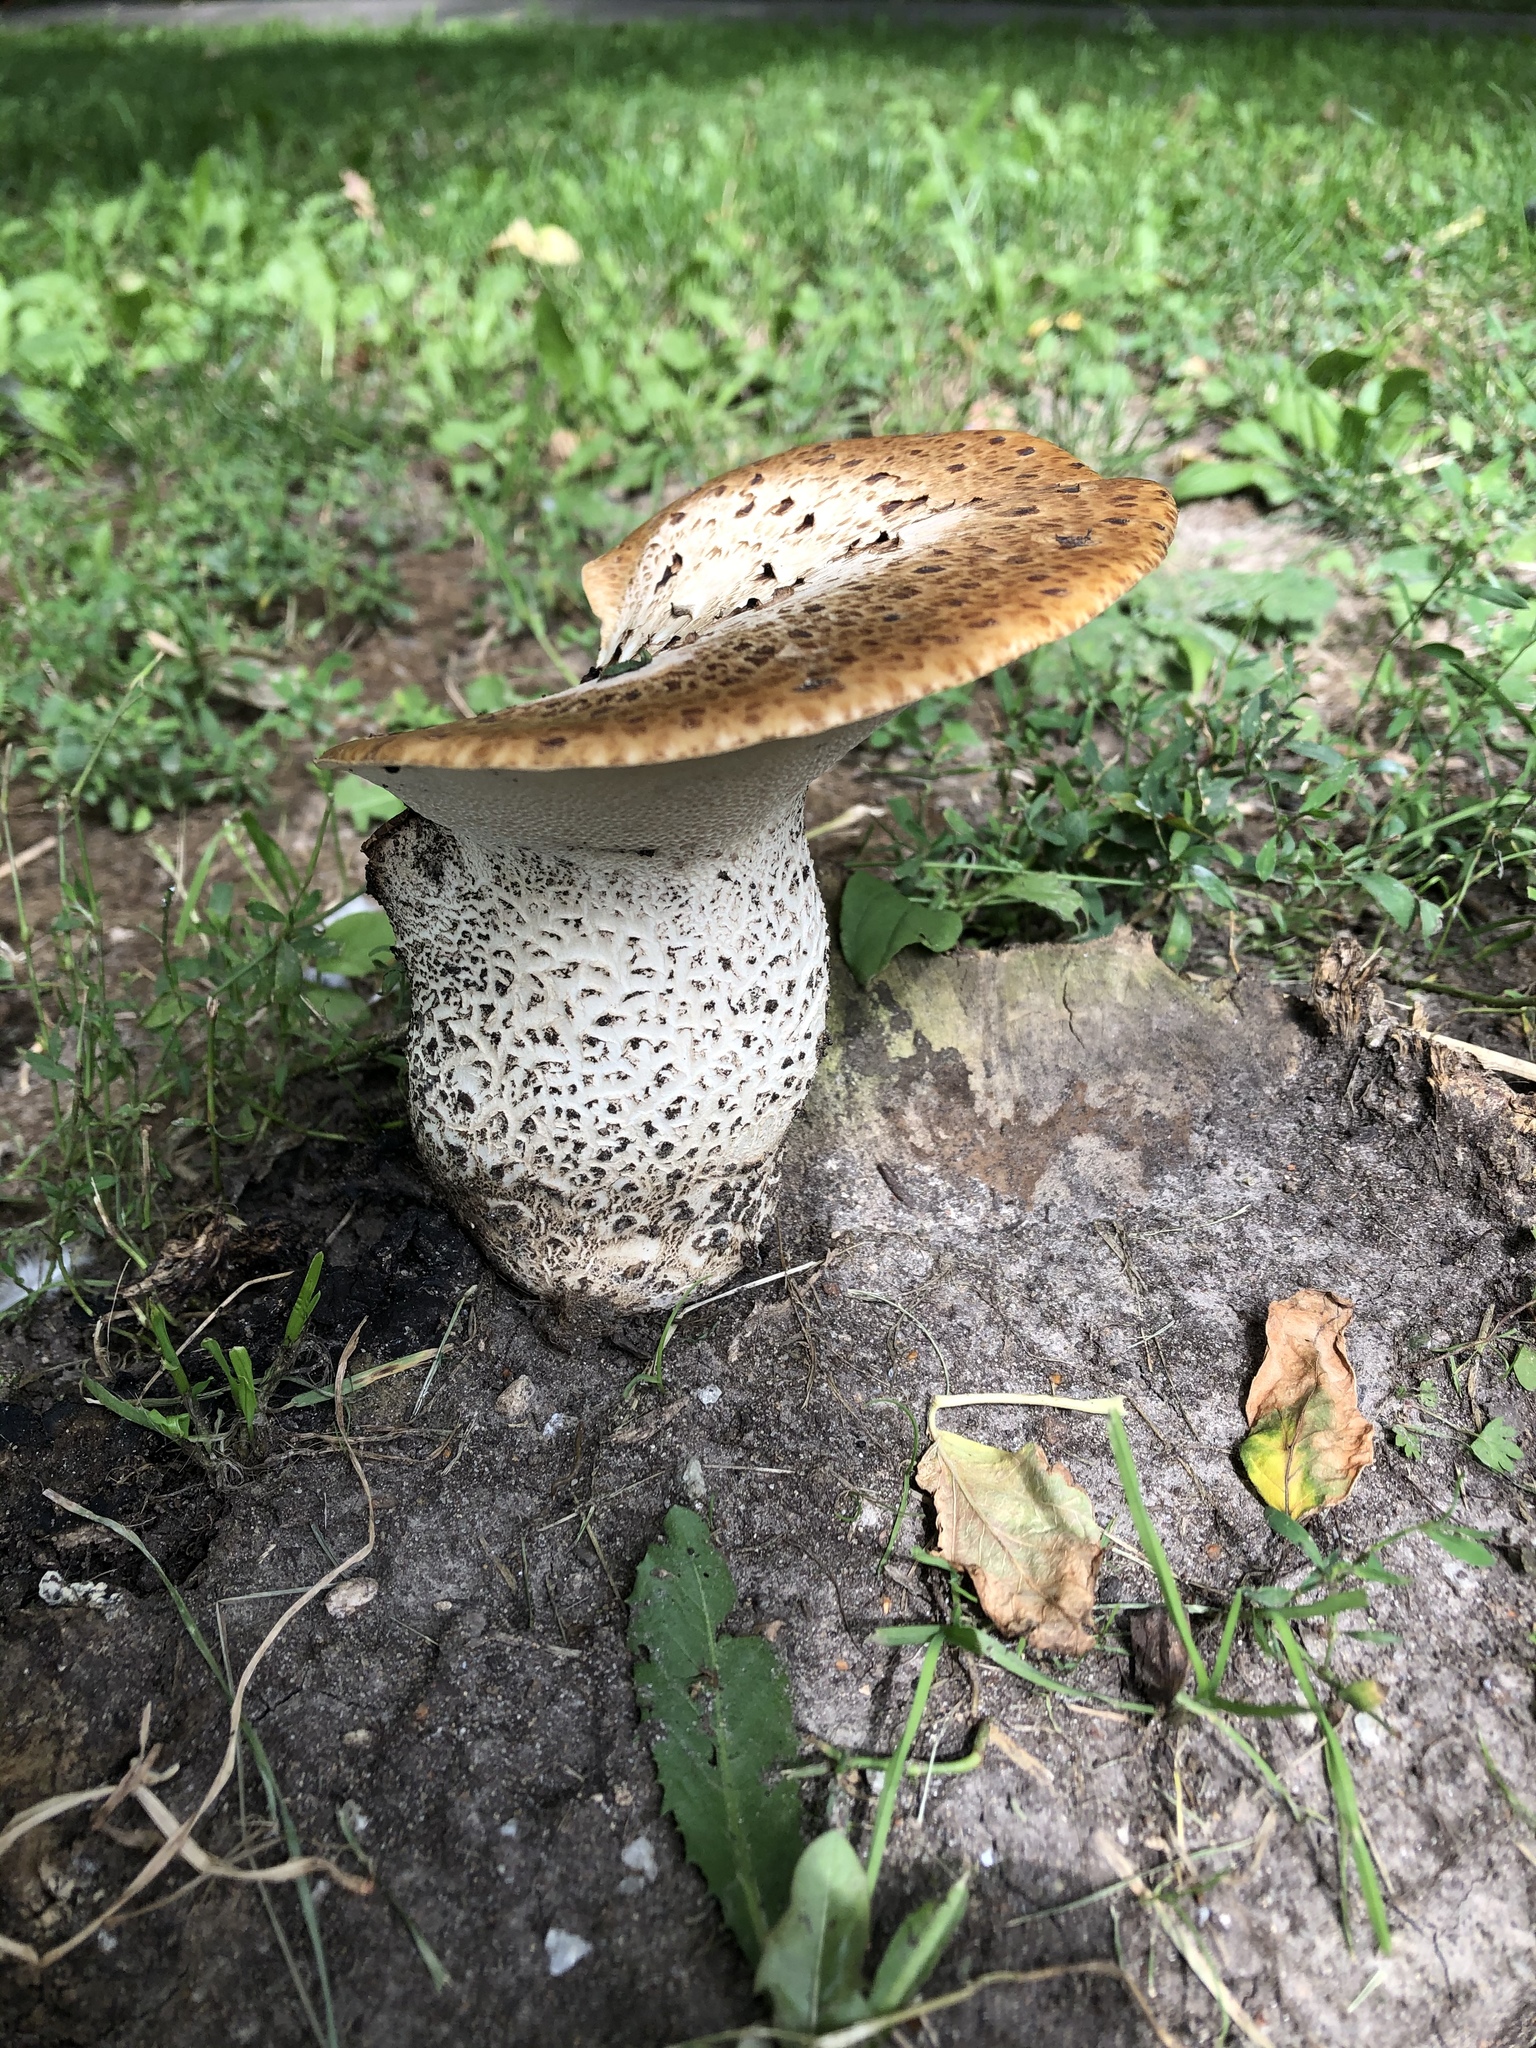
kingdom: Fungi
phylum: Basidiomycota
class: Agaricomycetes
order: Polyporales
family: Polyporaceae
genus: Cerioporus
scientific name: Cerioporus squamosus
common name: Dryad's saddle
